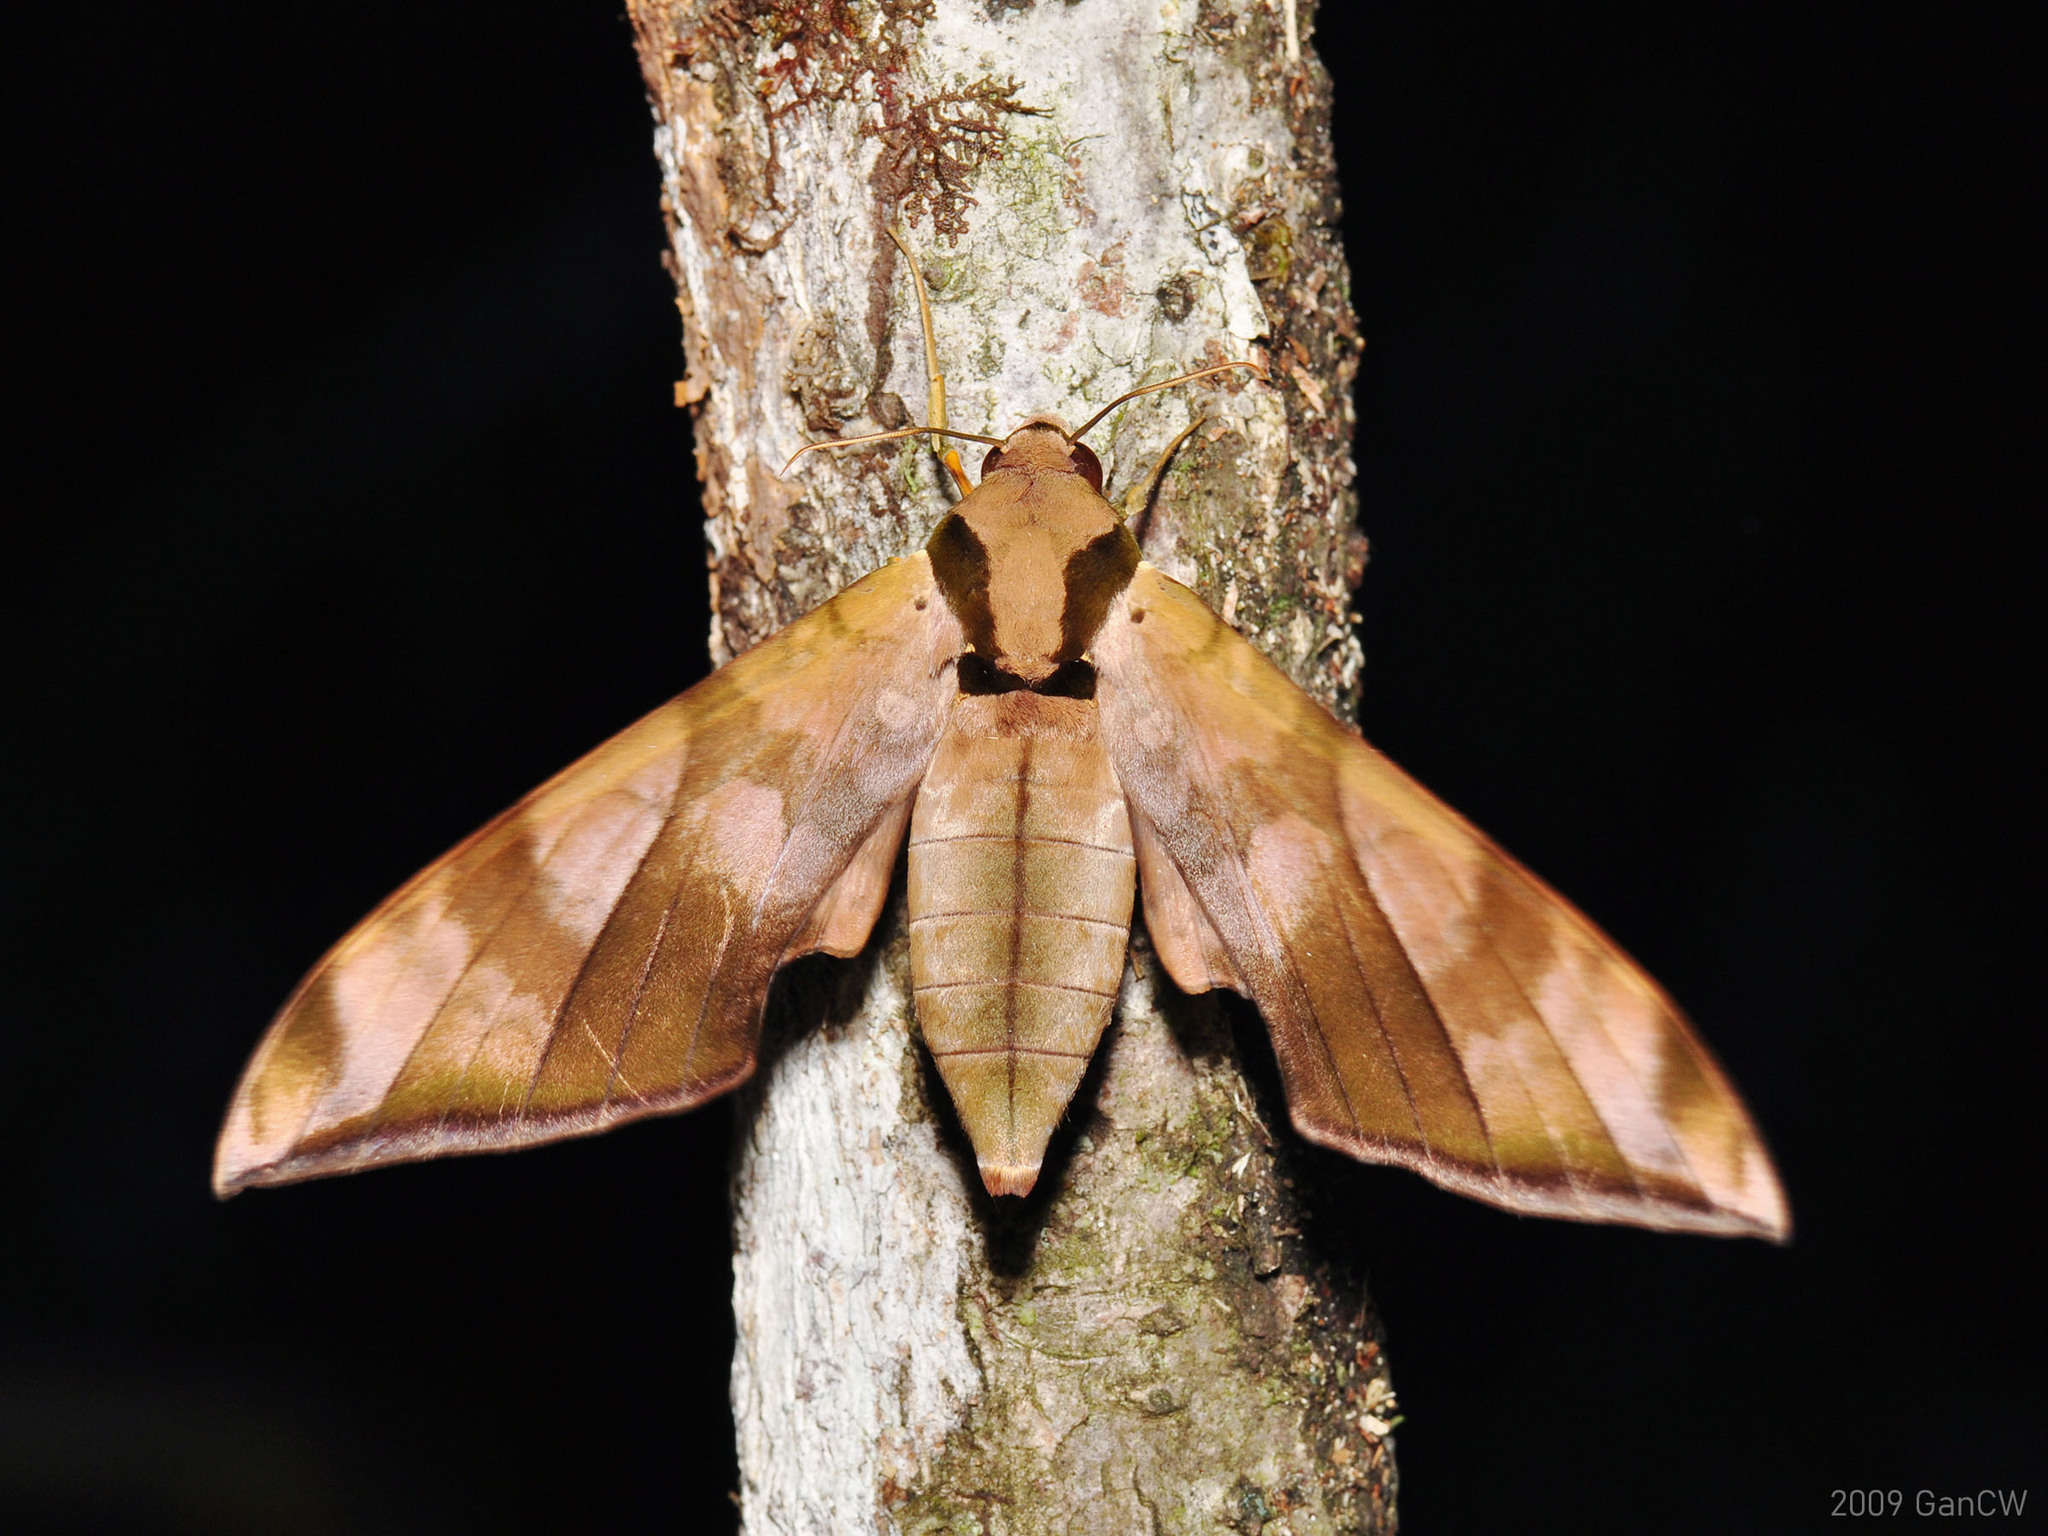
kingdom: Animalia
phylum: Arthropoda
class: Insecta
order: Lepidoptera
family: Sphingidae
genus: Ambulyx
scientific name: Ambulyx tattina
